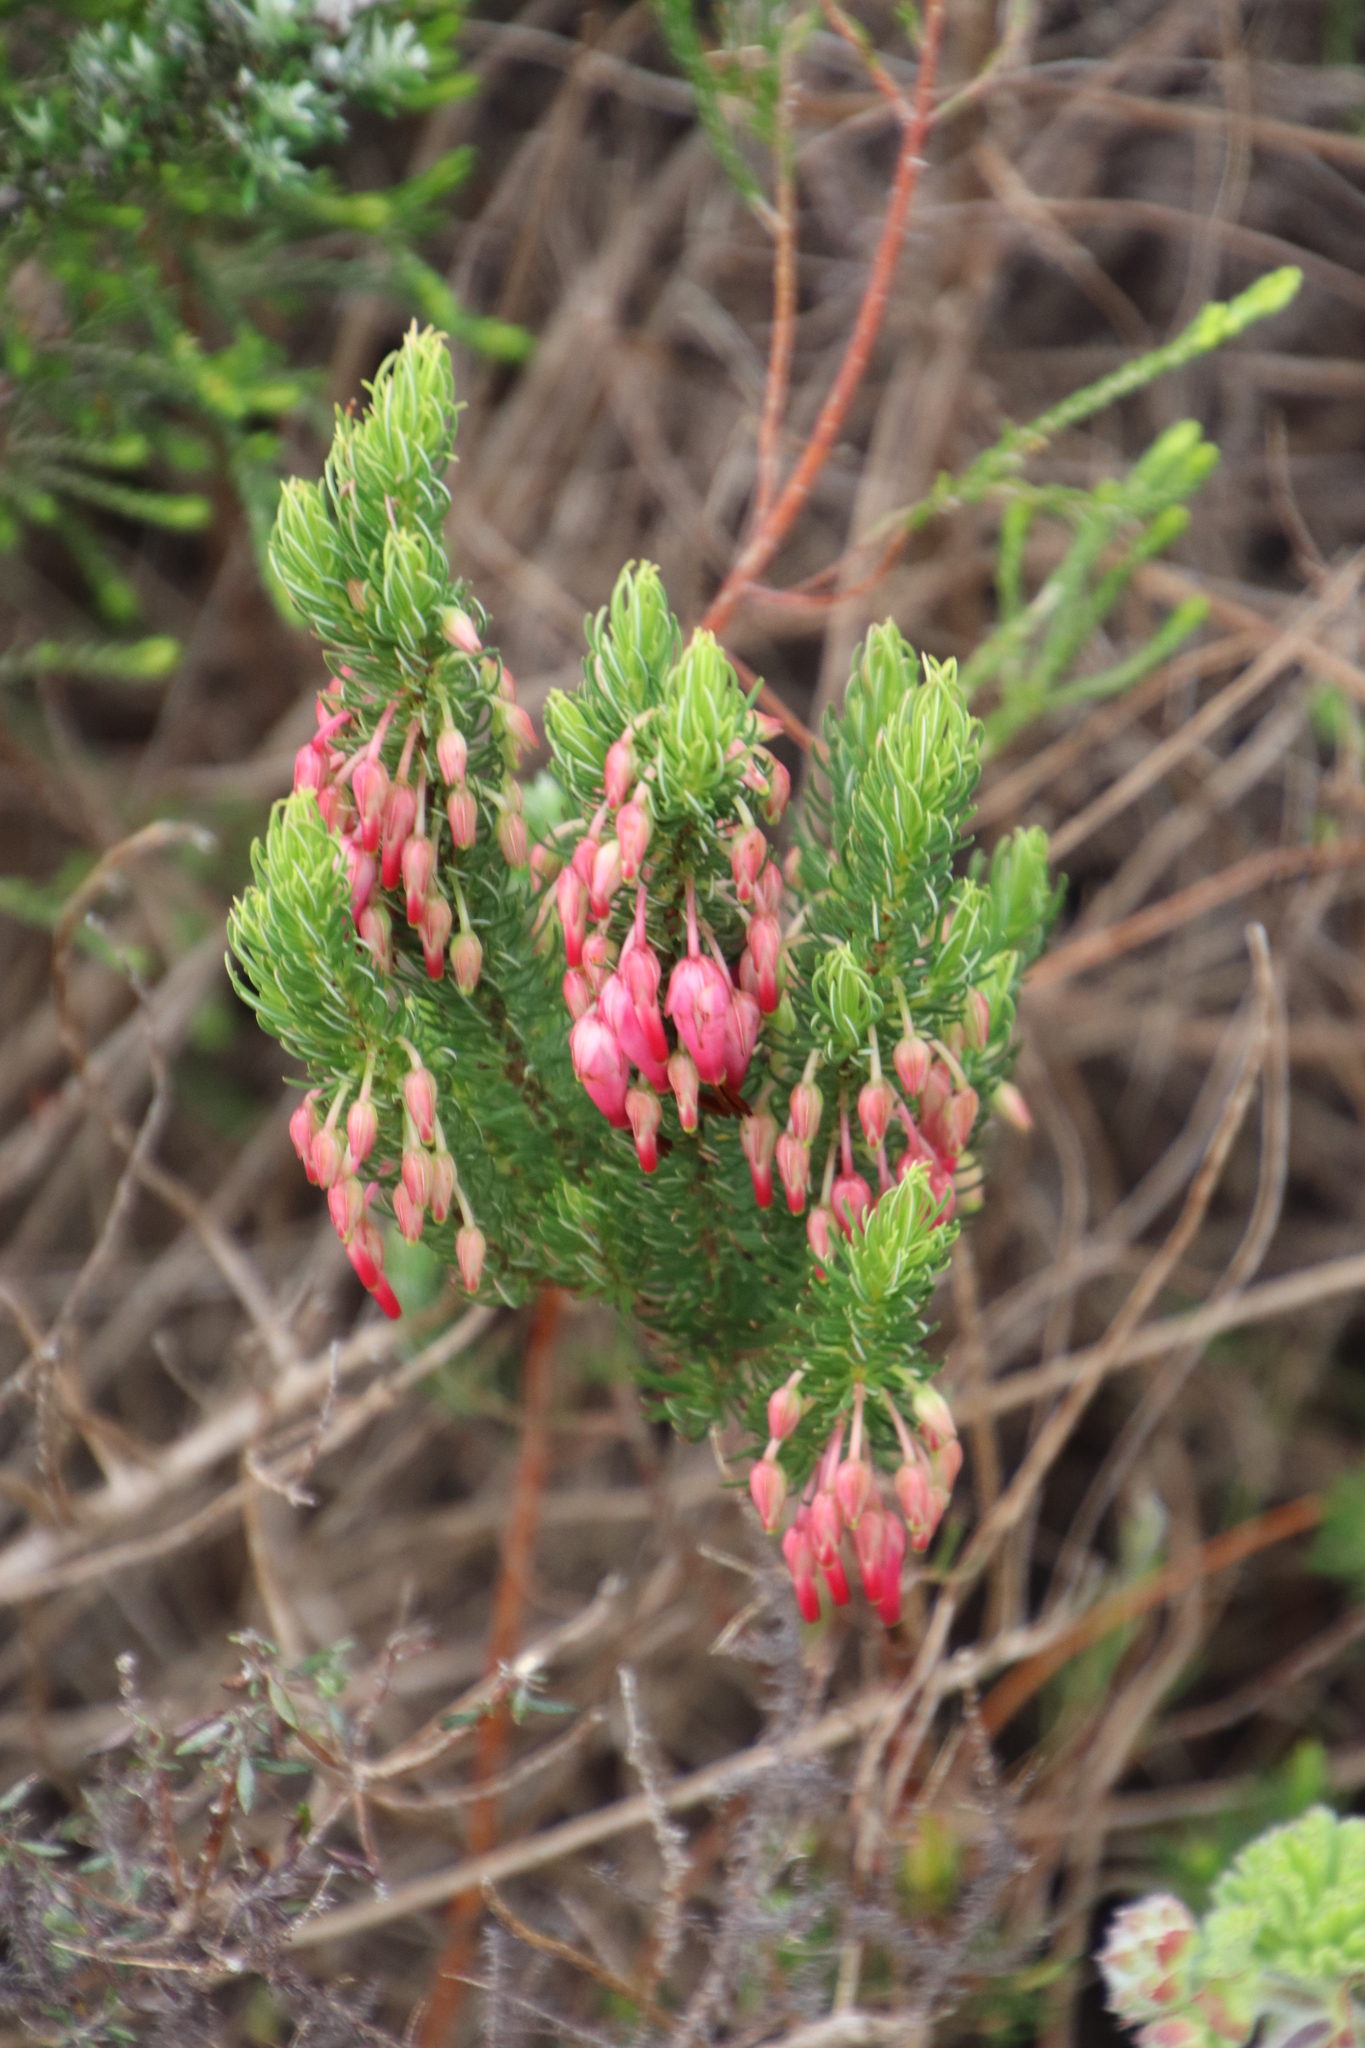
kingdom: Plantae
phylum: Tracheophyta
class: Magnoliopsida
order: Ericales
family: Ericaceae
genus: Erica
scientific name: Erica plukenetii
